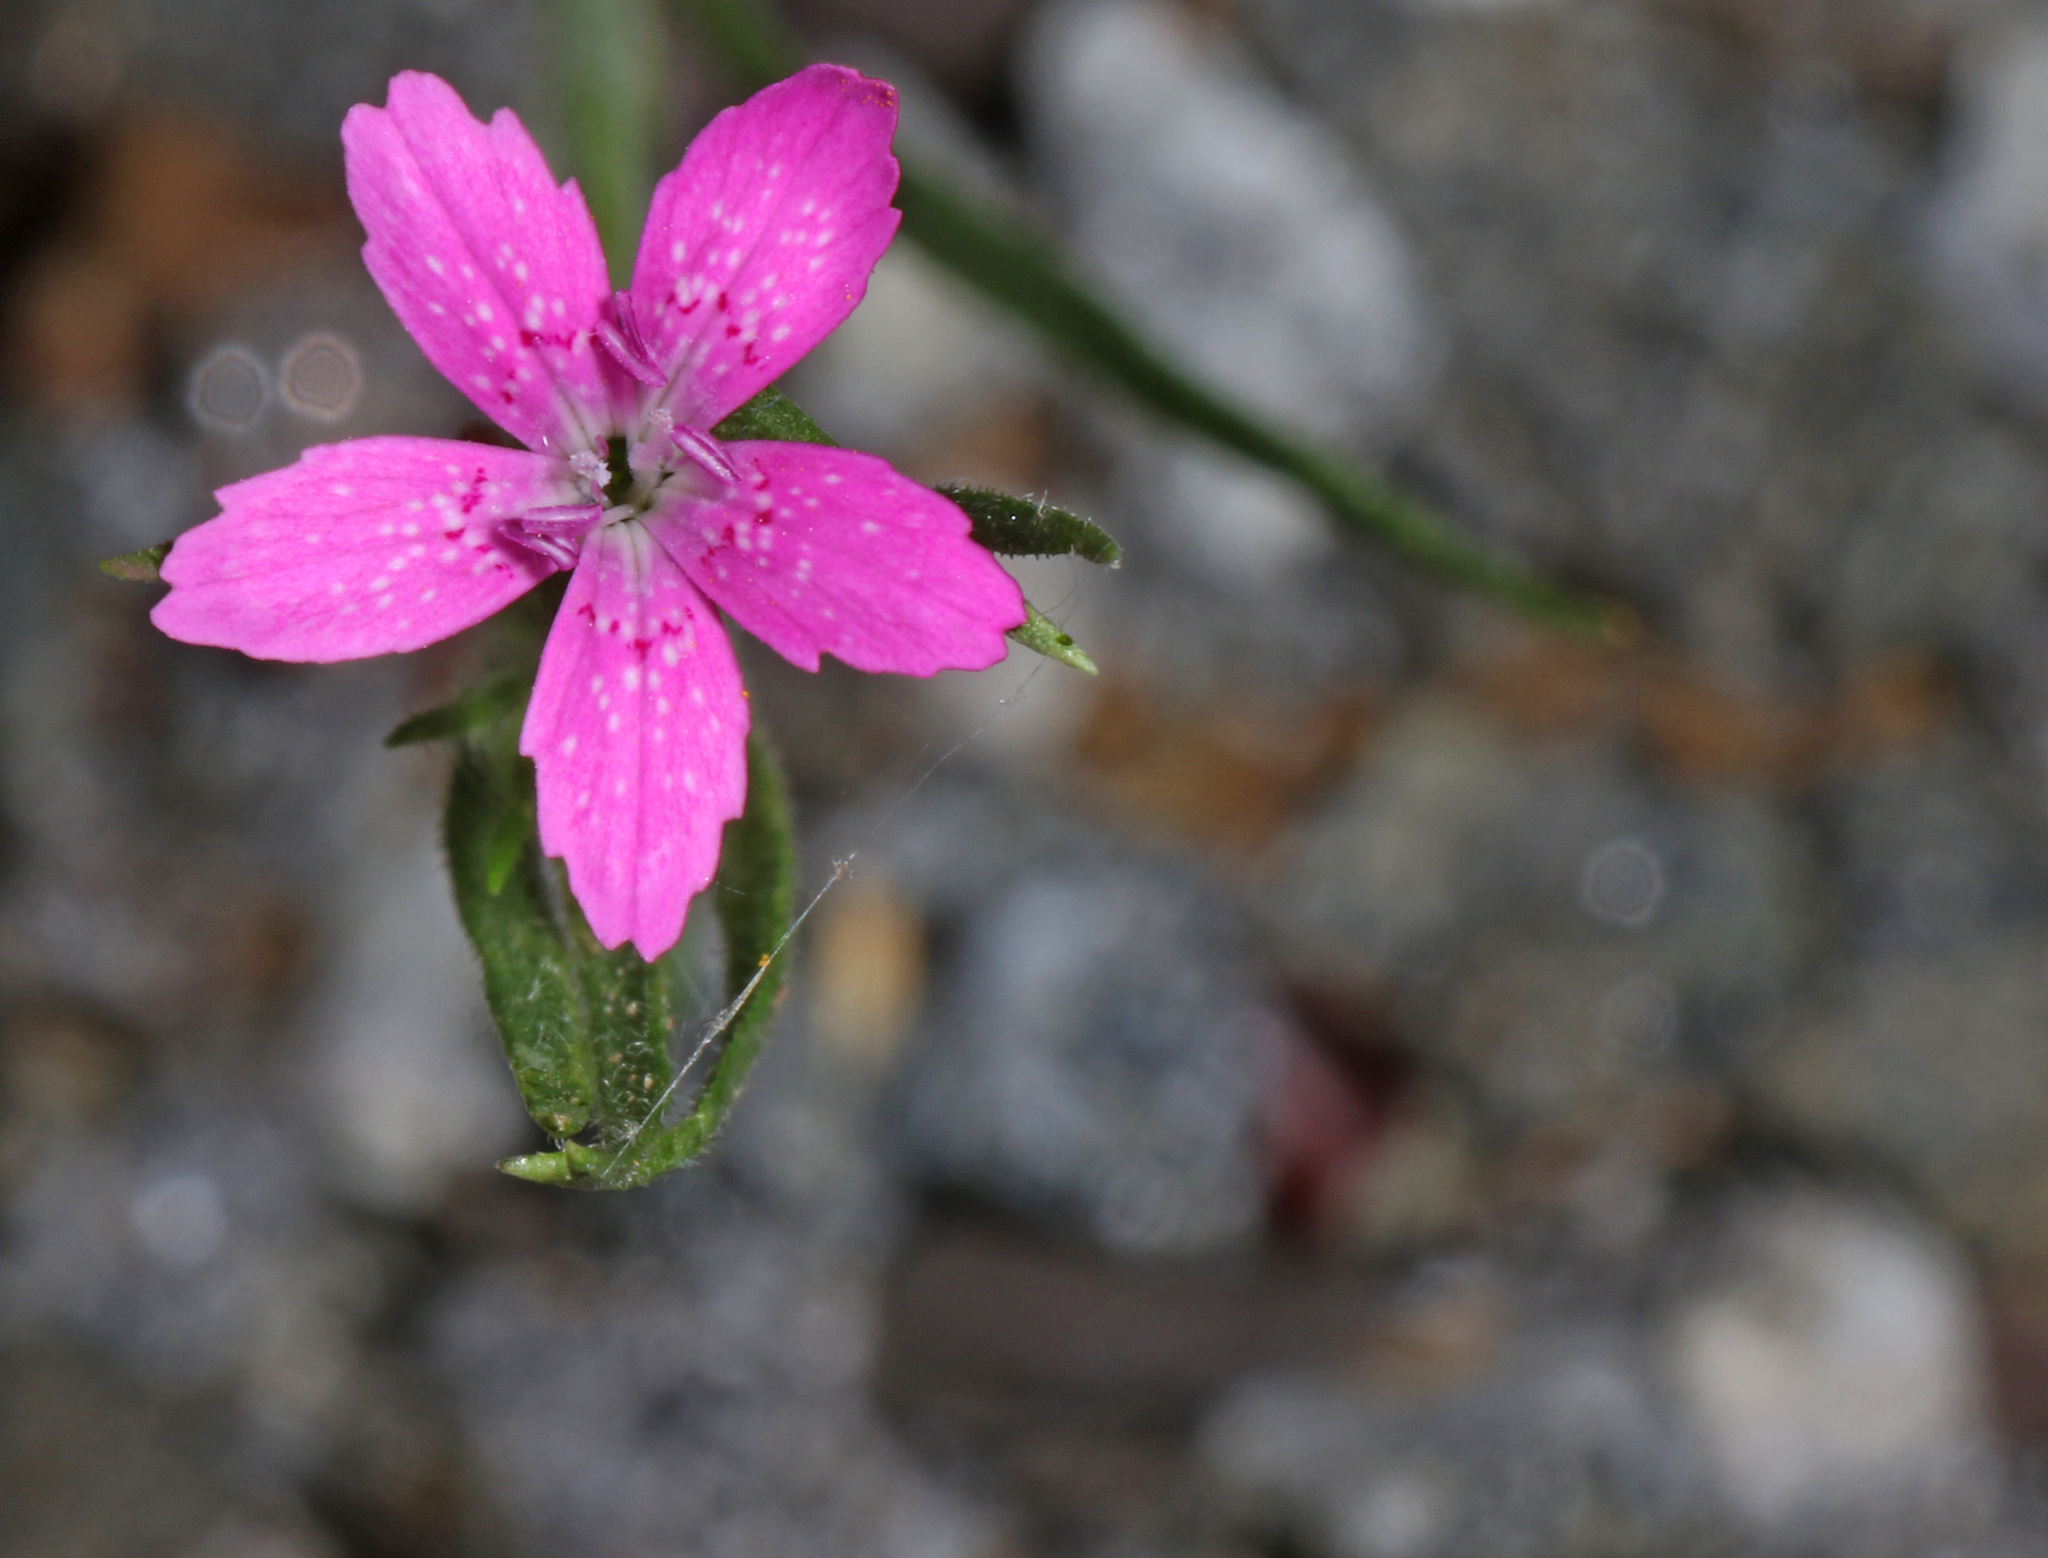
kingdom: Plantae
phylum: Tracheophyta
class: Magnoliopsida
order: Caryophyllales
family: Caryophyllaceae
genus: Dianthus
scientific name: Dianthus armeria
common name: Deptford pink
